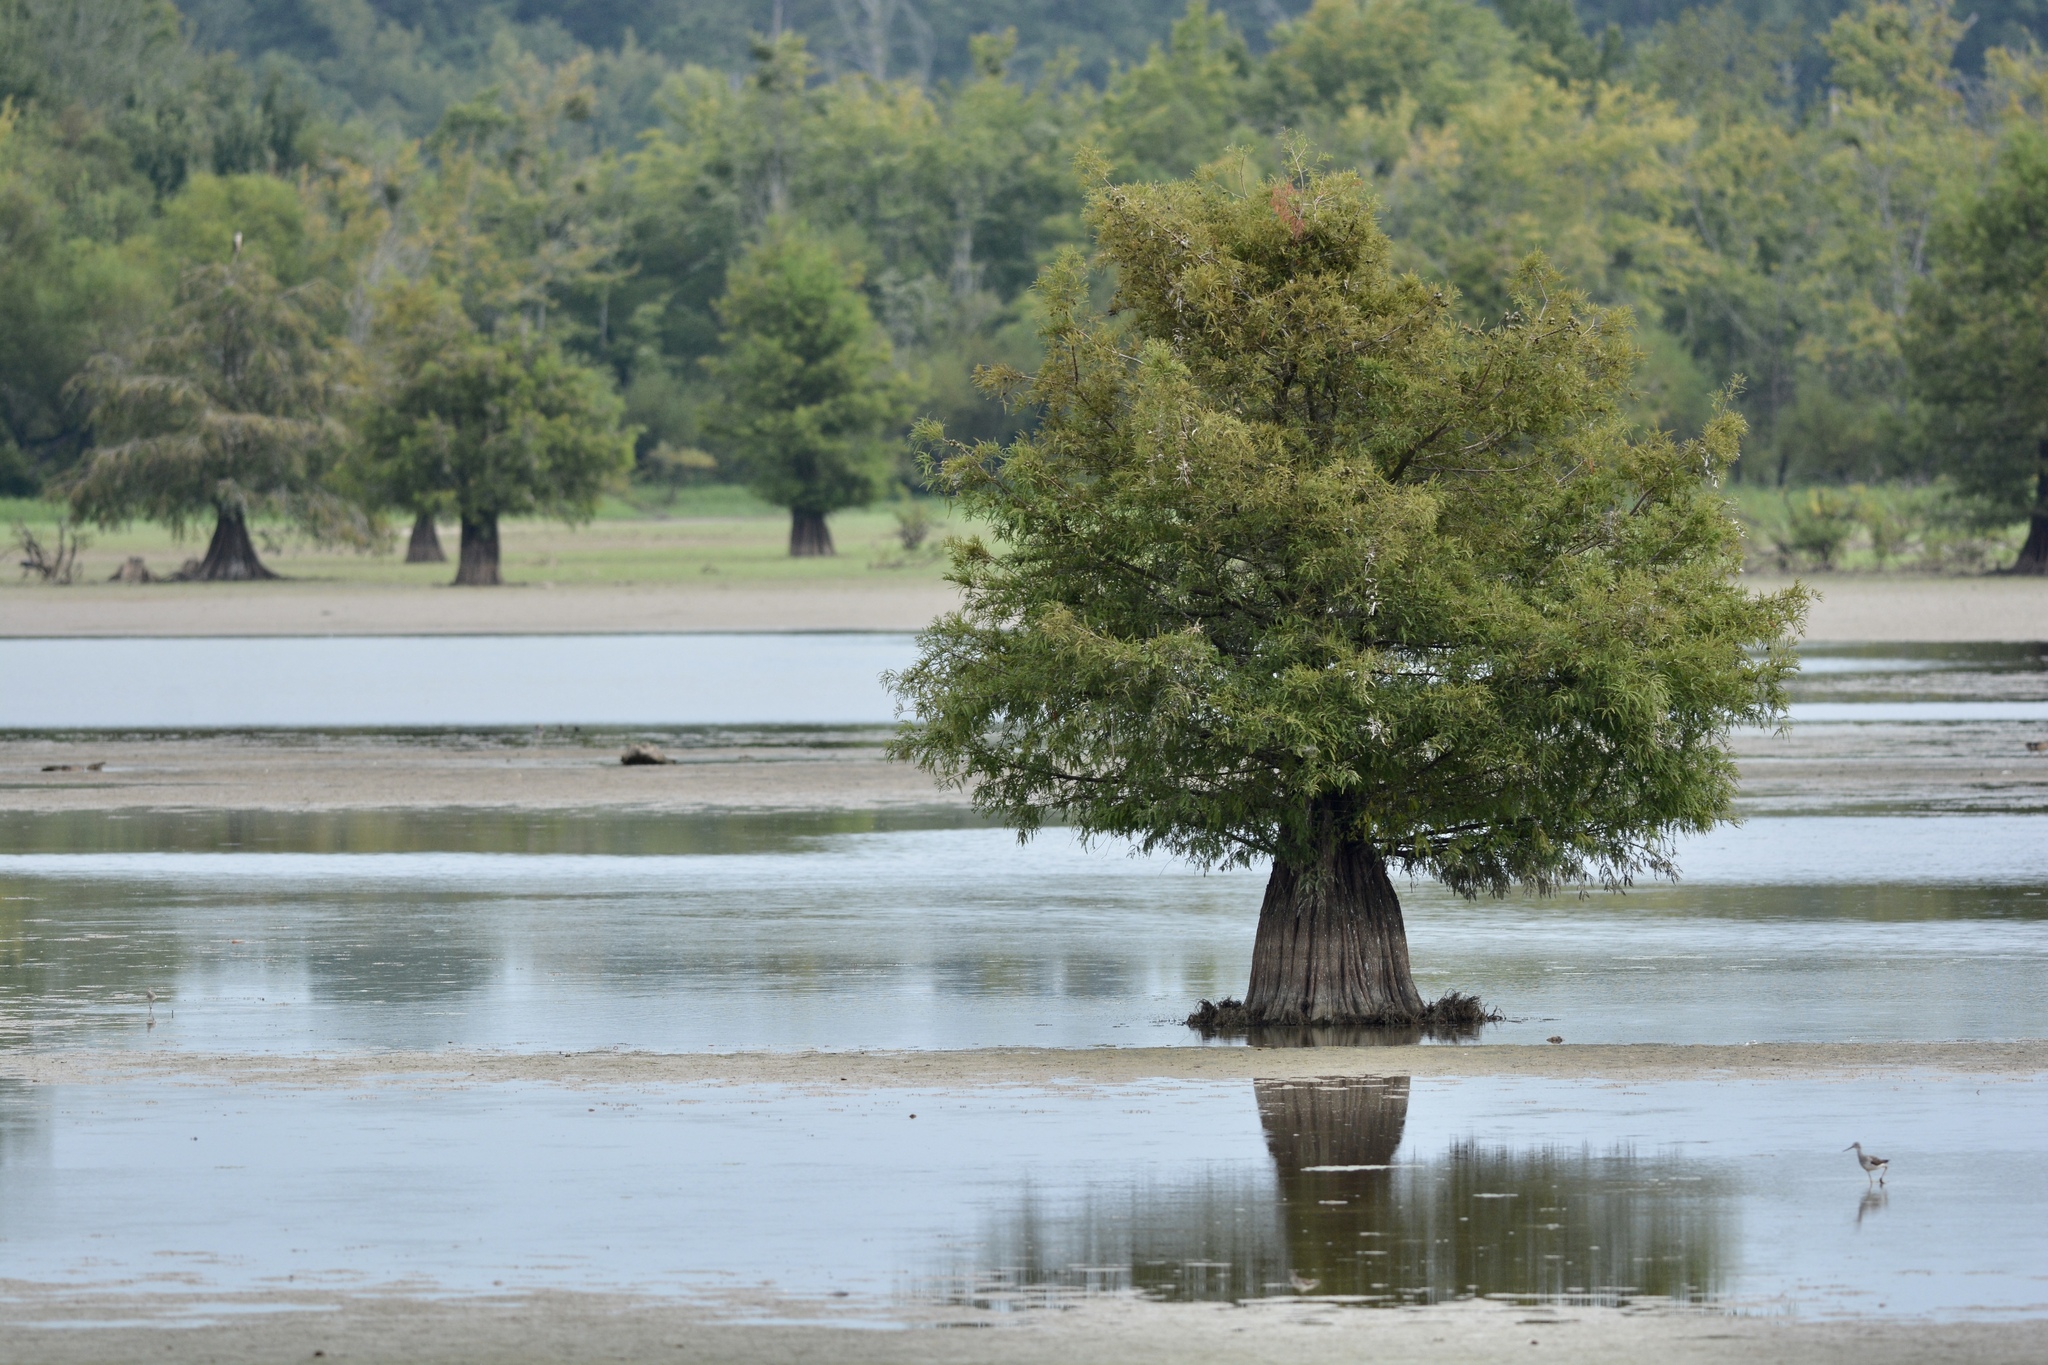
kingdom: Plantae
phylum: Tracheophyta
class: Pinopsida
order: Pinales
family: Cupressaceae
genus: Taxodium
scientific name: Taxodium distichum
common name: Bald cypress
